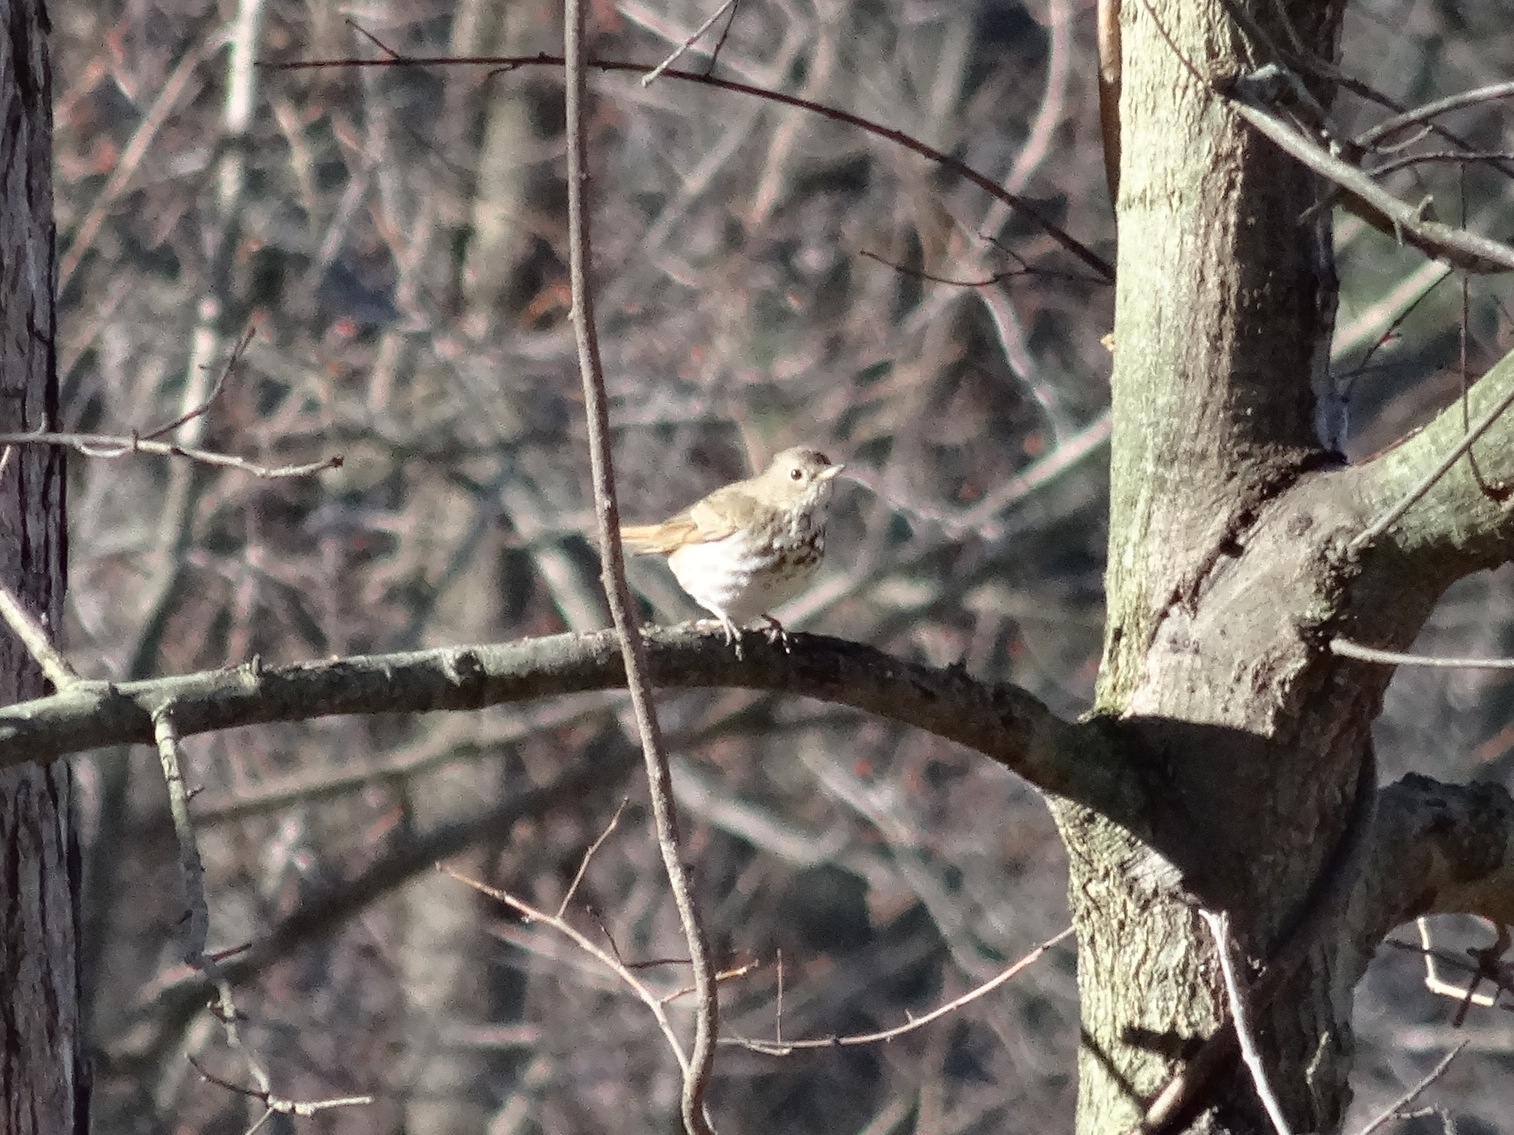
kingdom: Animalia
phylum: Chordata
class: Aves
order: Passeriformes
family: Turdidae
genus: Catharus
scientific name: Catharus guttatus
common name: Hermit thrush
